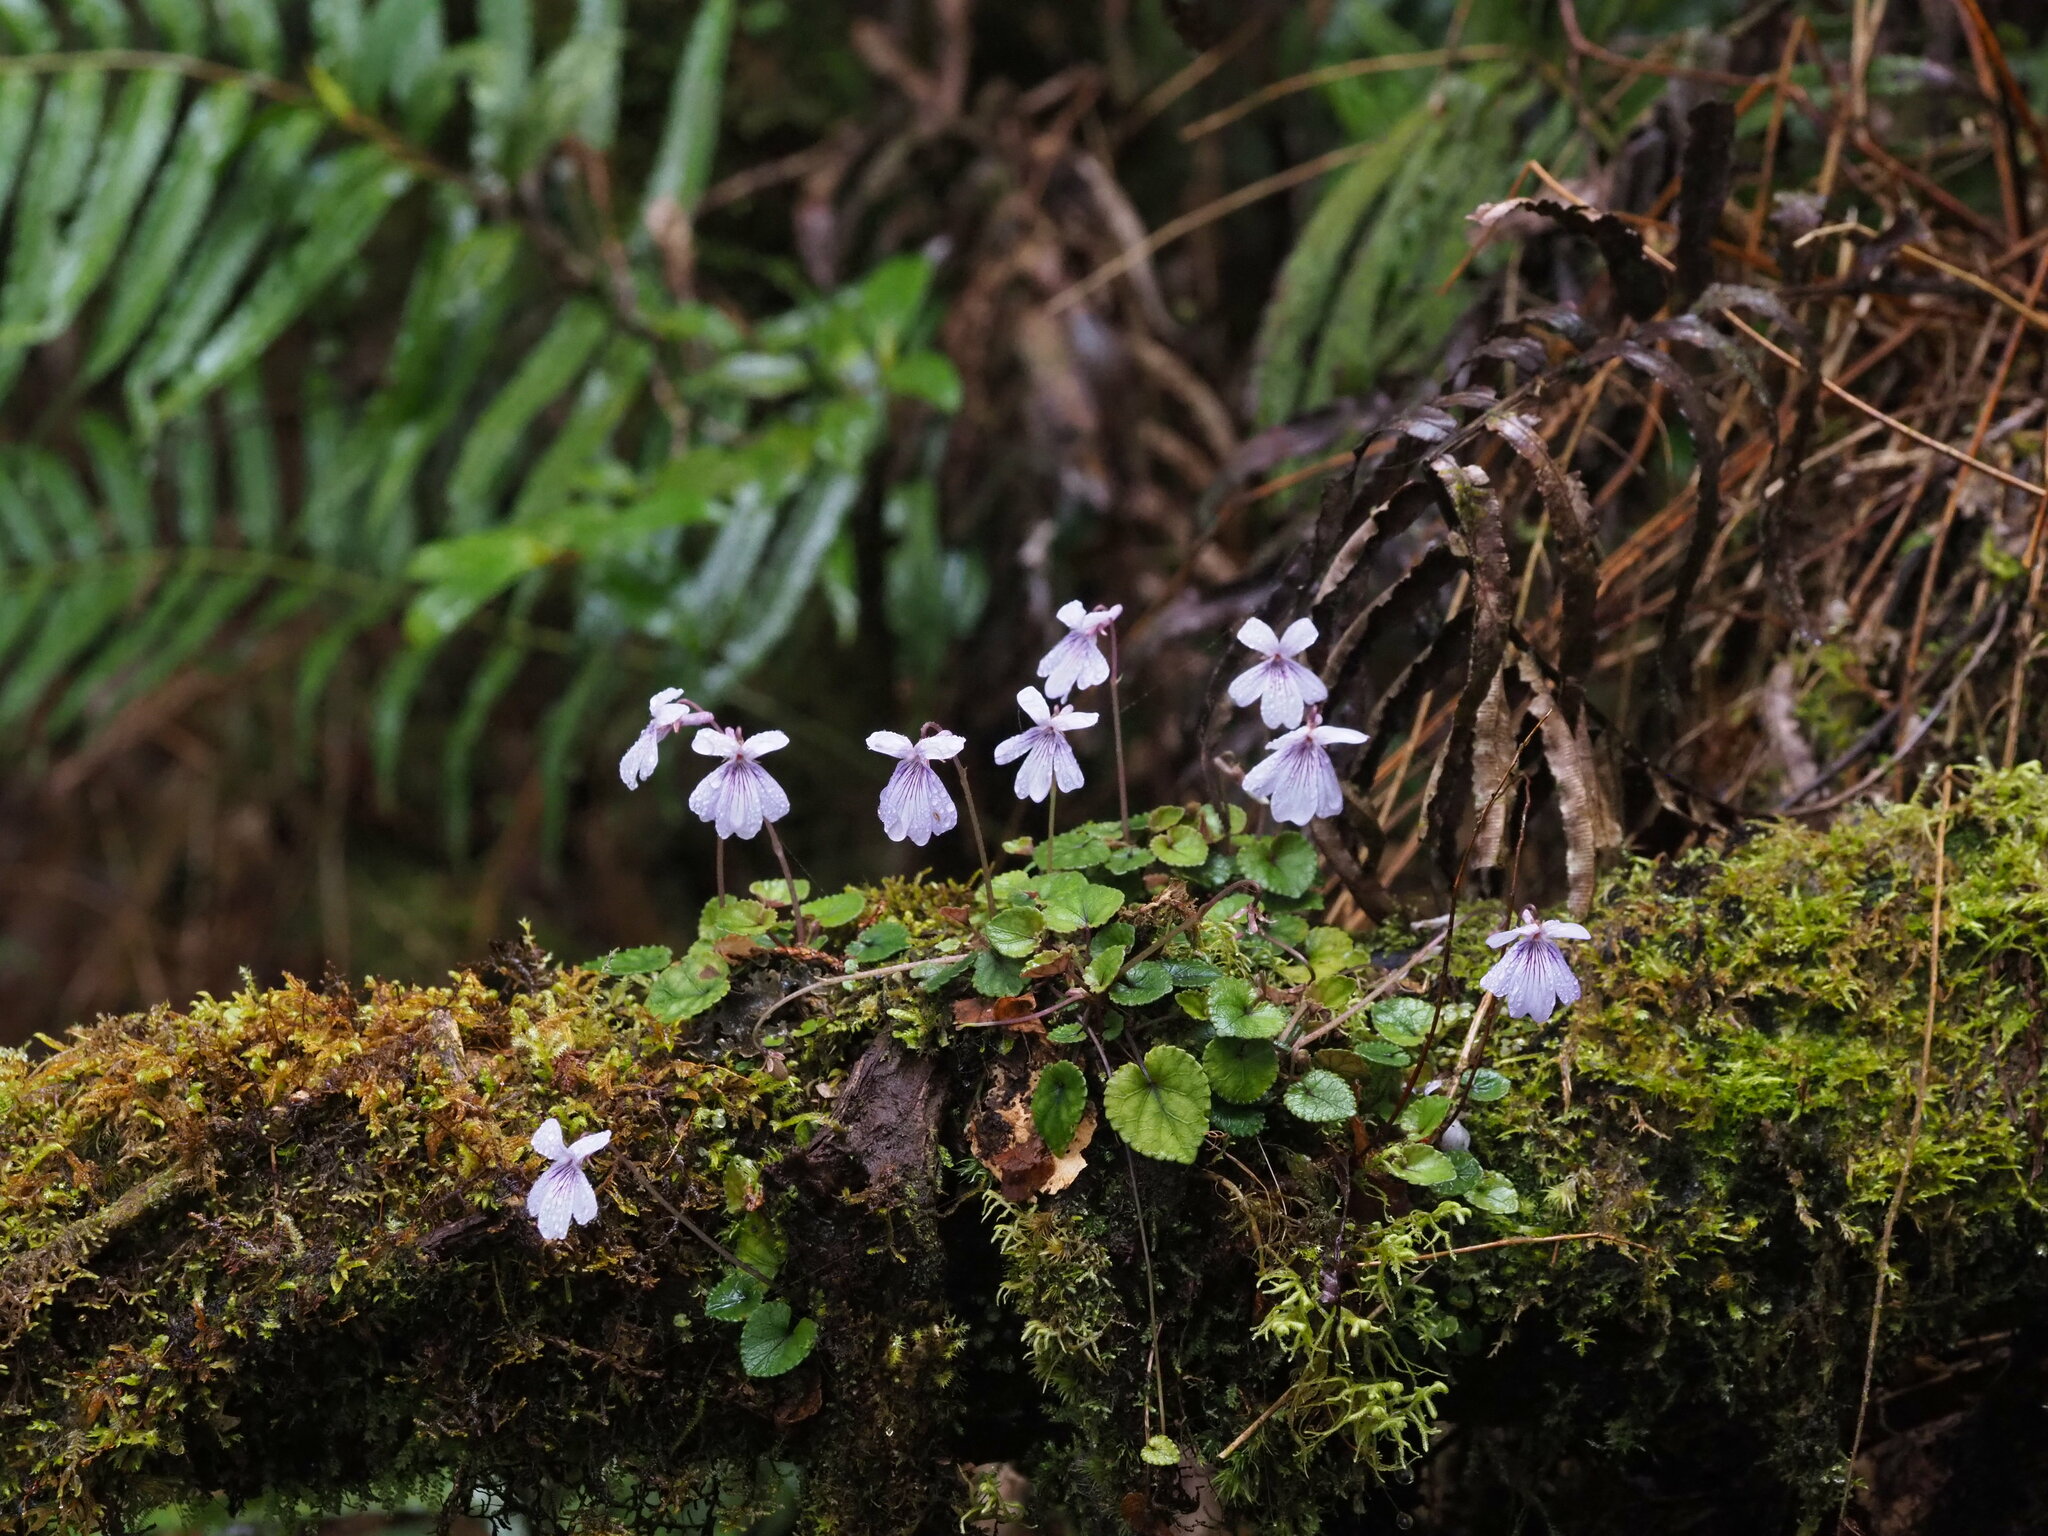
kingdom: Plantae
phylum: Tracheophyta
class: Magnoliopsida
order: Malpighiales
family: Violaceae
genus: Viola
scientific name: Viola formosana
